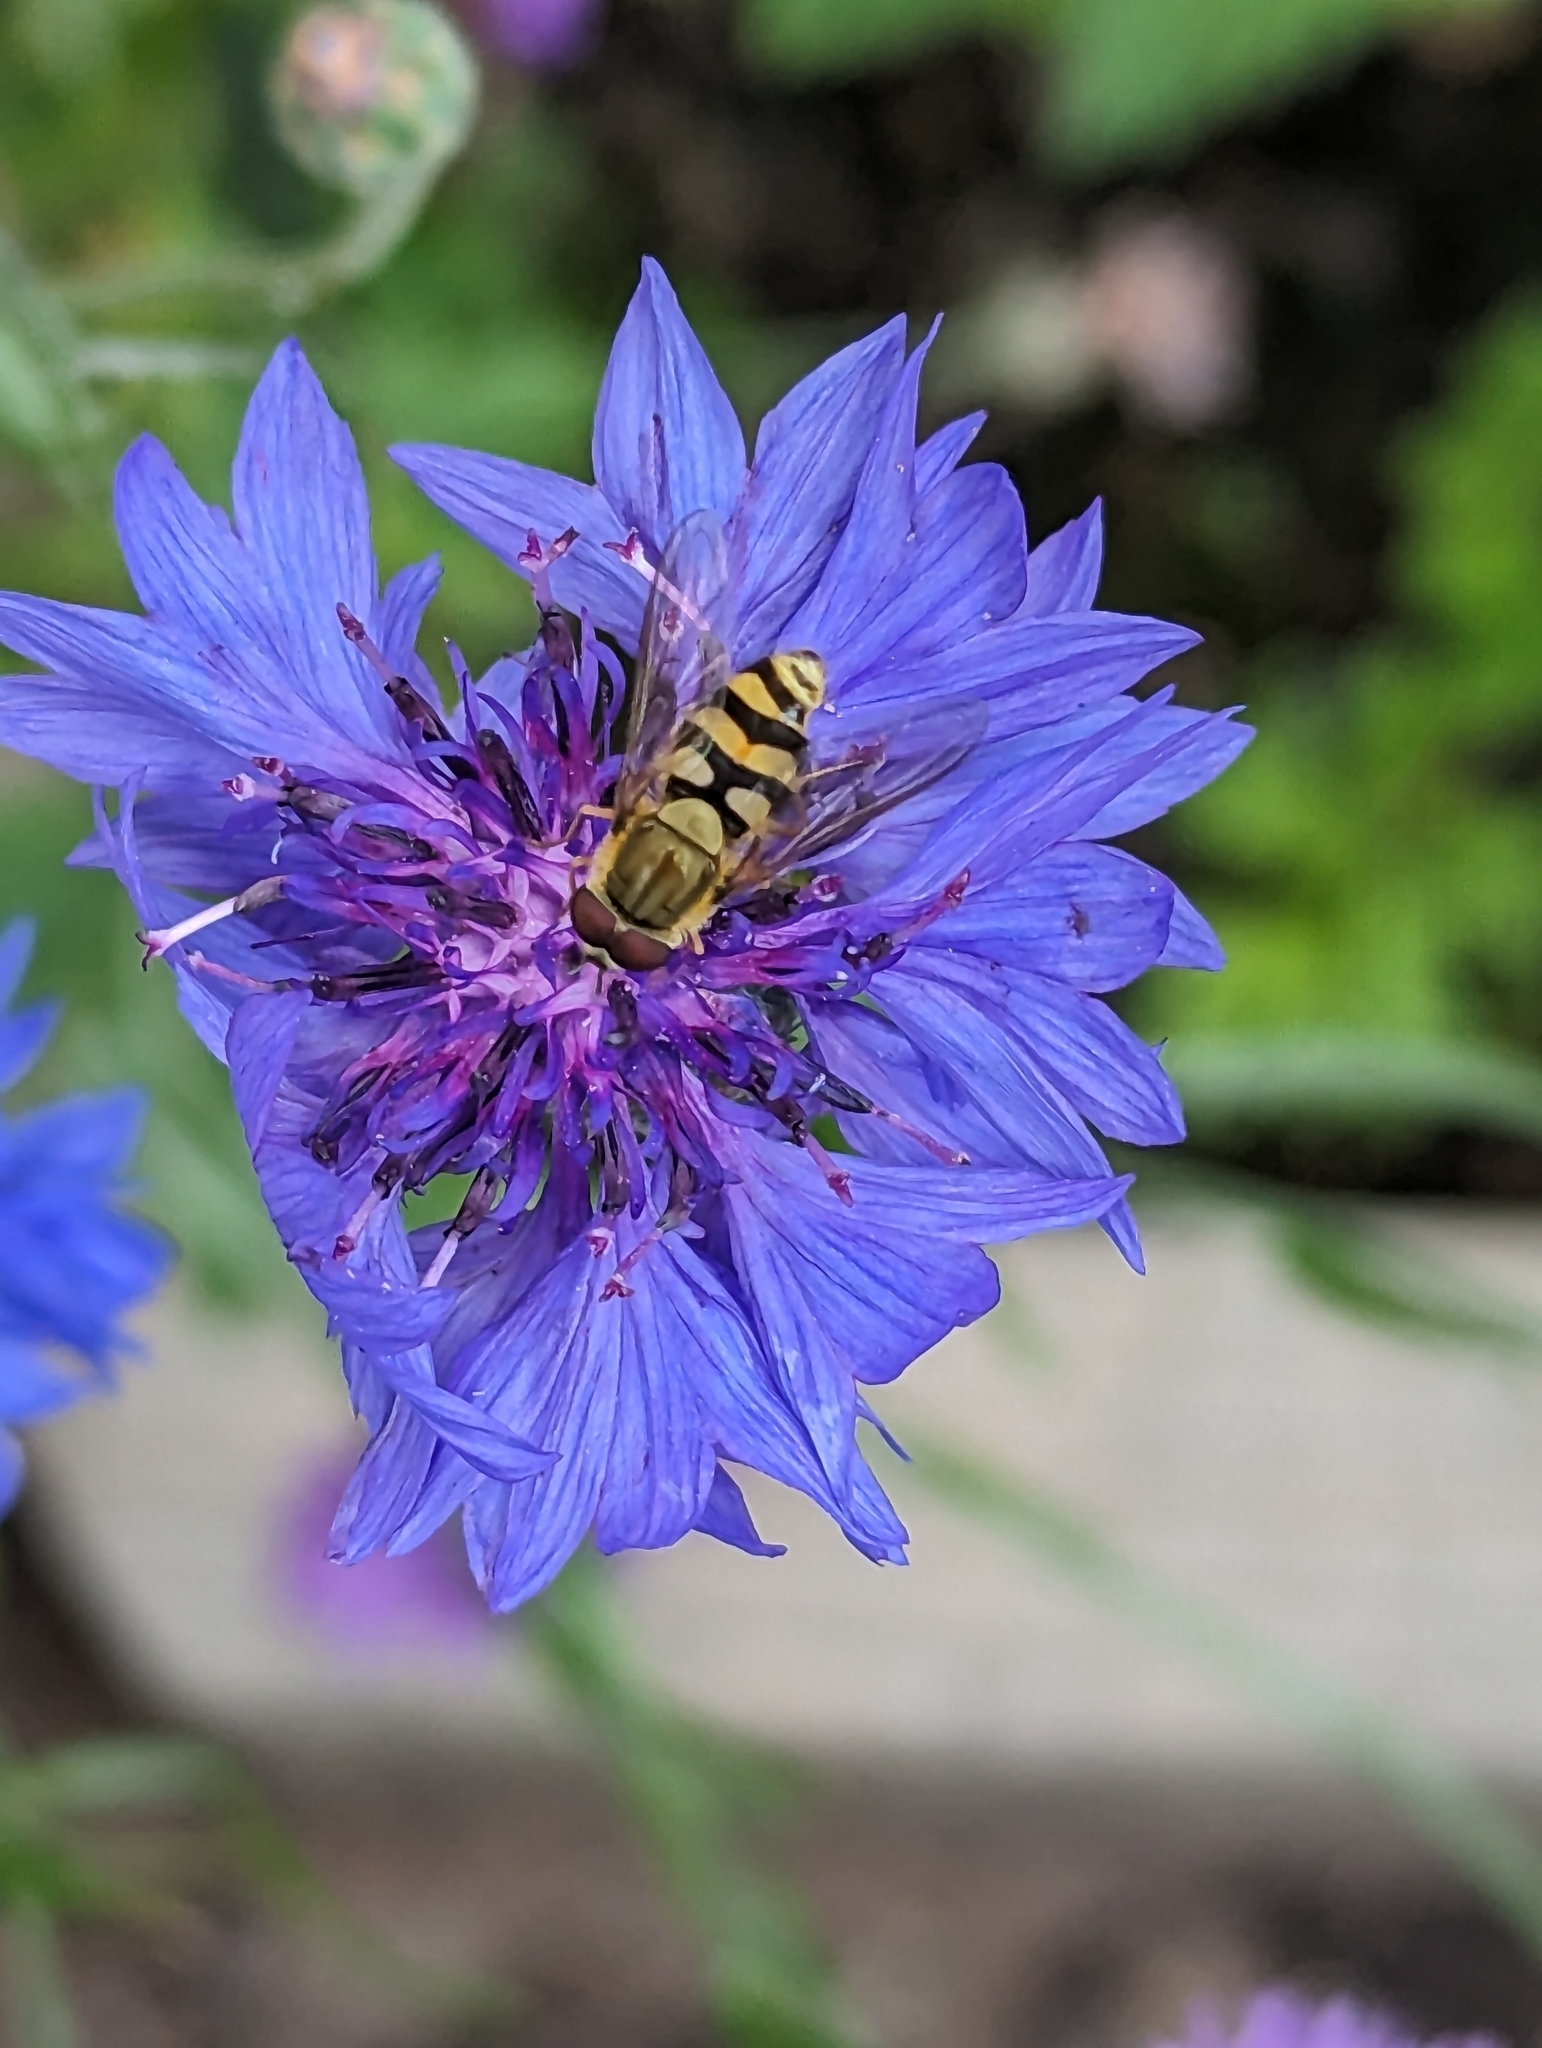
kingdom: Animalia
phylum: Arthropoda
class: Insecta
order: Diptera
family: Syrphidae
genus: Syrphus
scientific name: Syrphus
